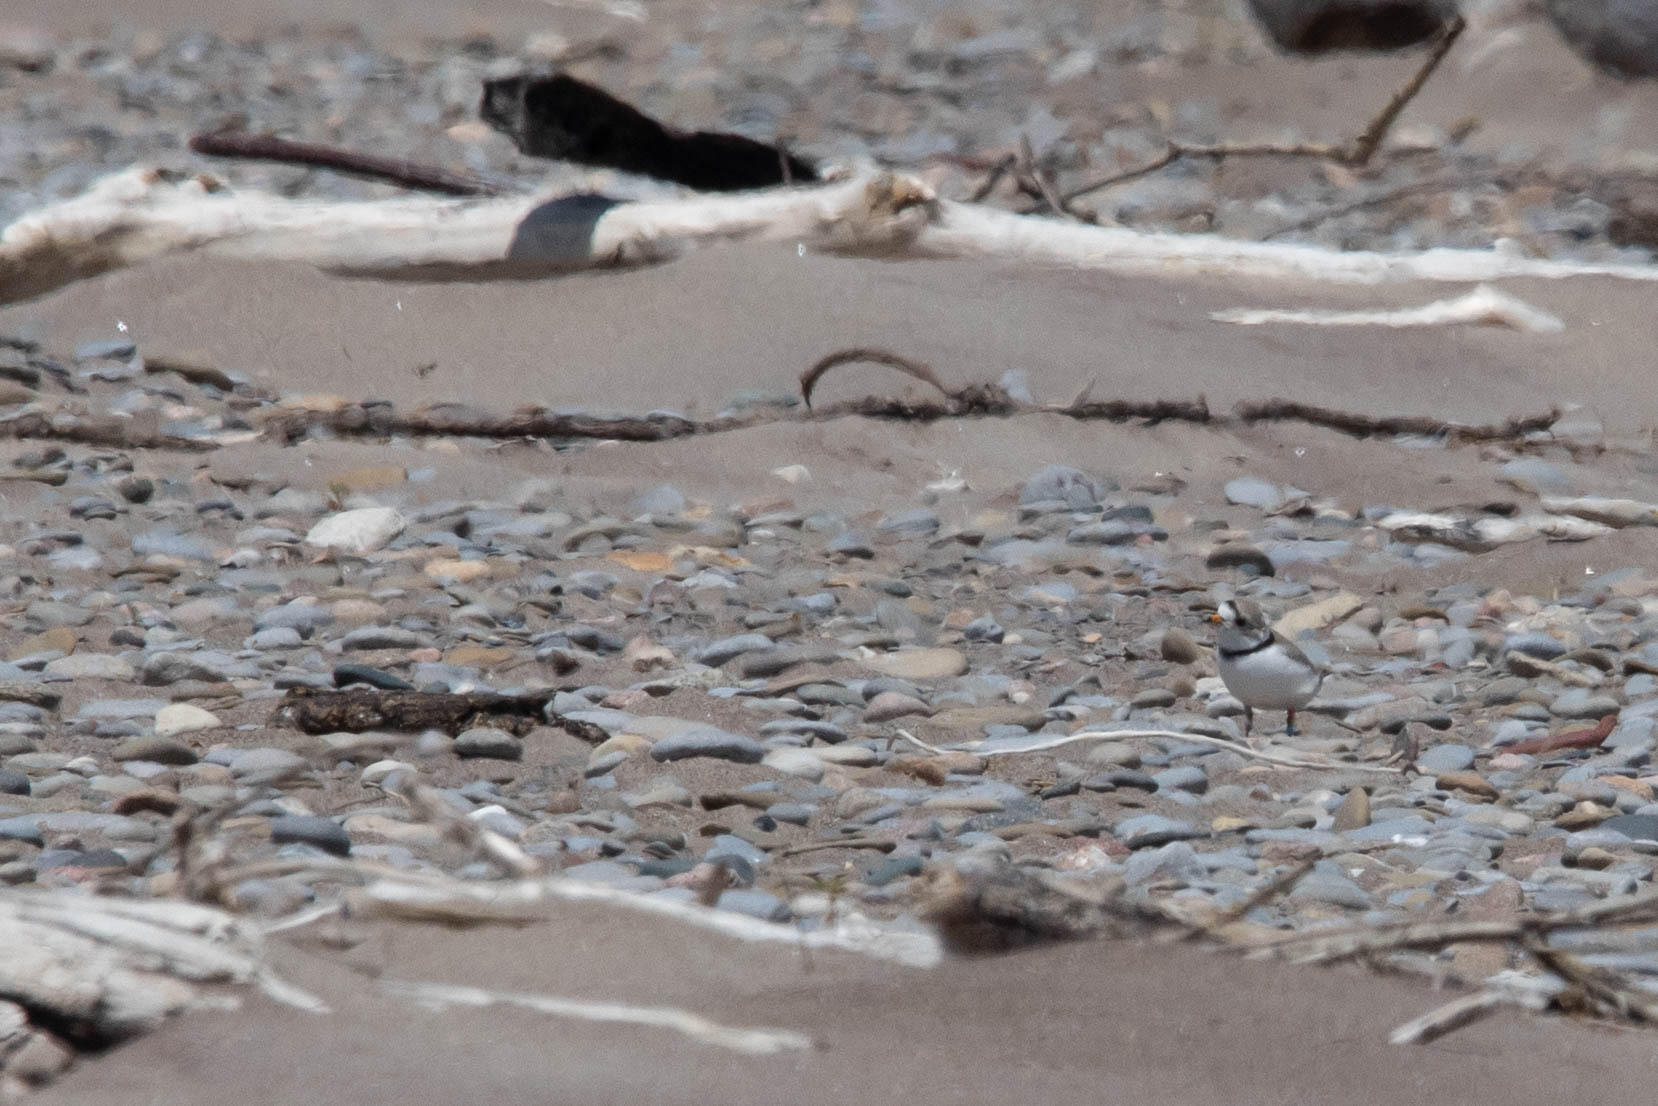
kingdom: Animalia
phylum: Chordata
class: Aves
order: Charadriiformes
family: Charadriidae
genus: Charadrius
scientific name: Charadrius melodus
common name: Piping plover
